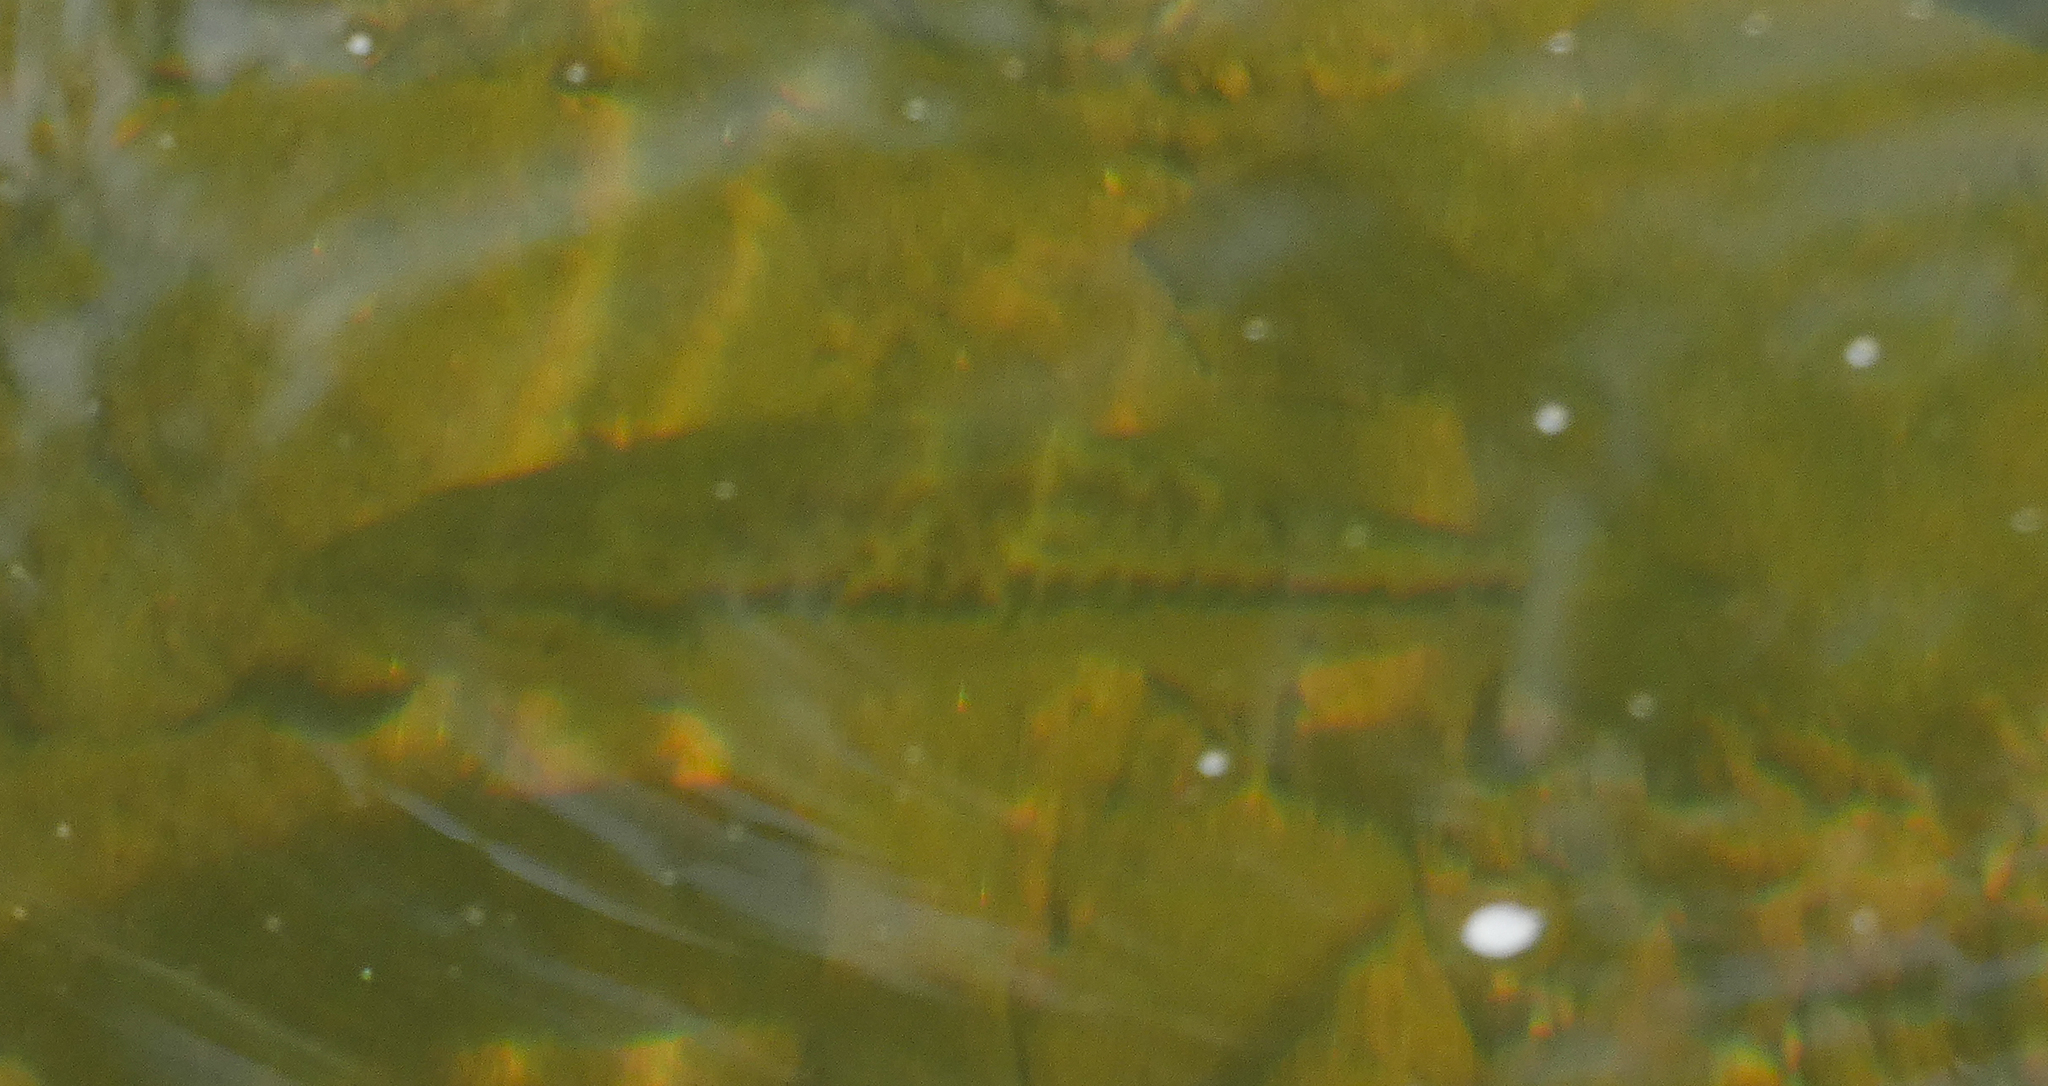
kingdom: Animalia
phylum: Chordata
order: Perciformes
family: Centrarchidae
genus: Micropterus
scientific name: Micropterus
